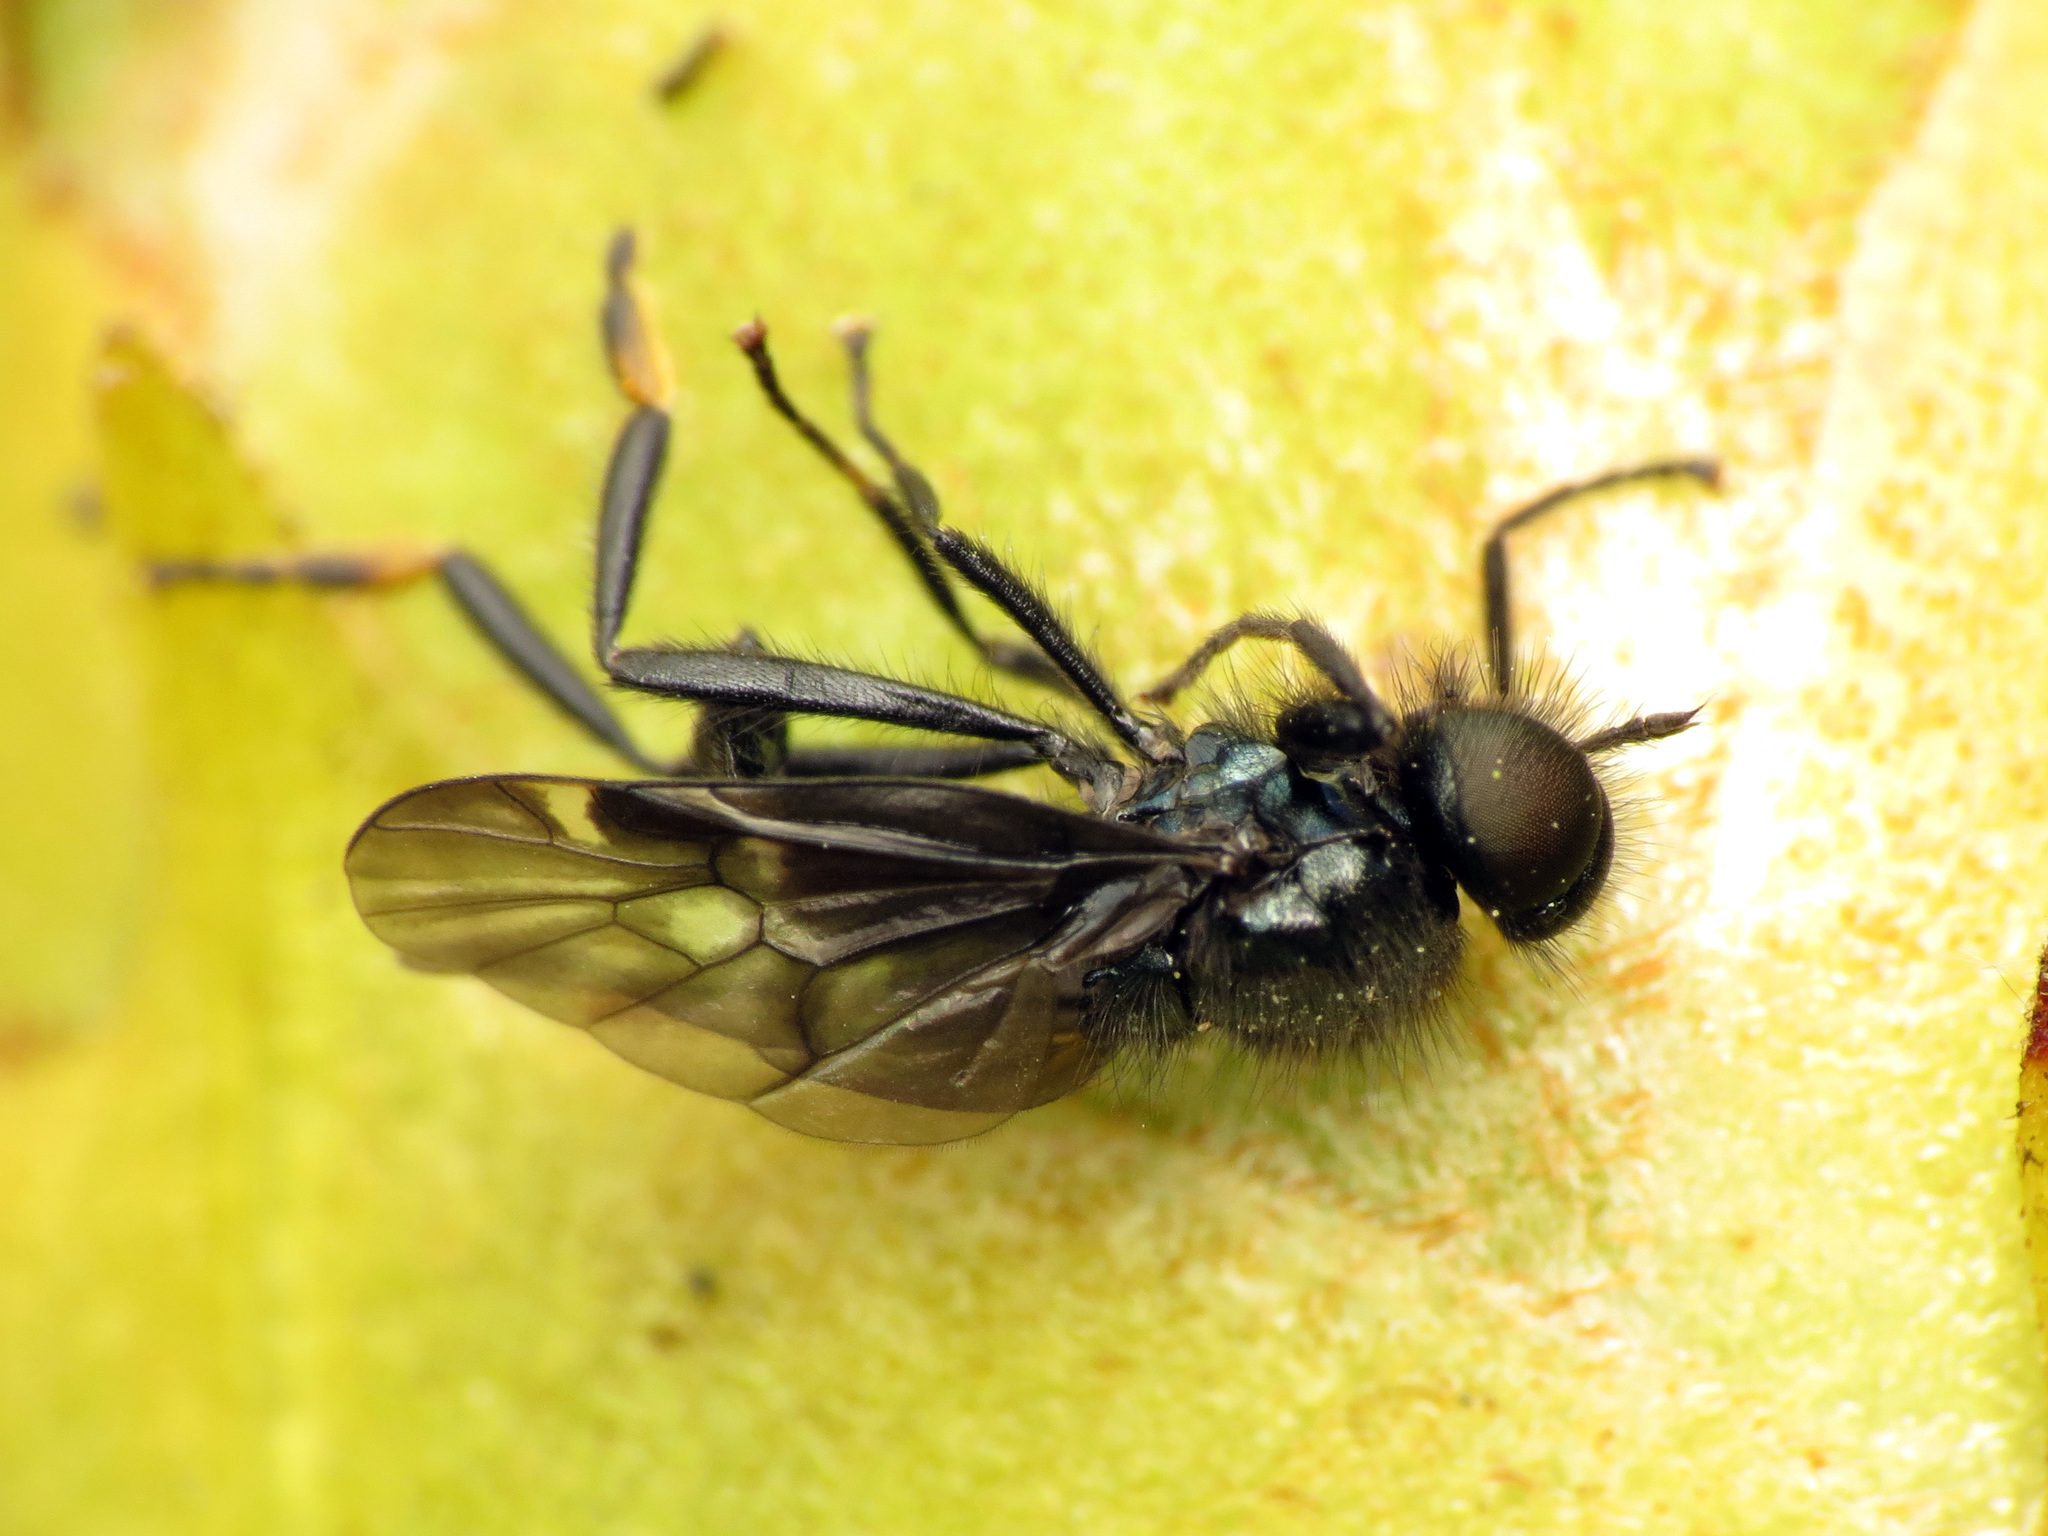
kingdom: Animalia
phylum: Arthropoda
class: Insecta
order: Diptera
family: Stratiomyidae
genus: Berisina
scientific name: Berisina maculipennis
